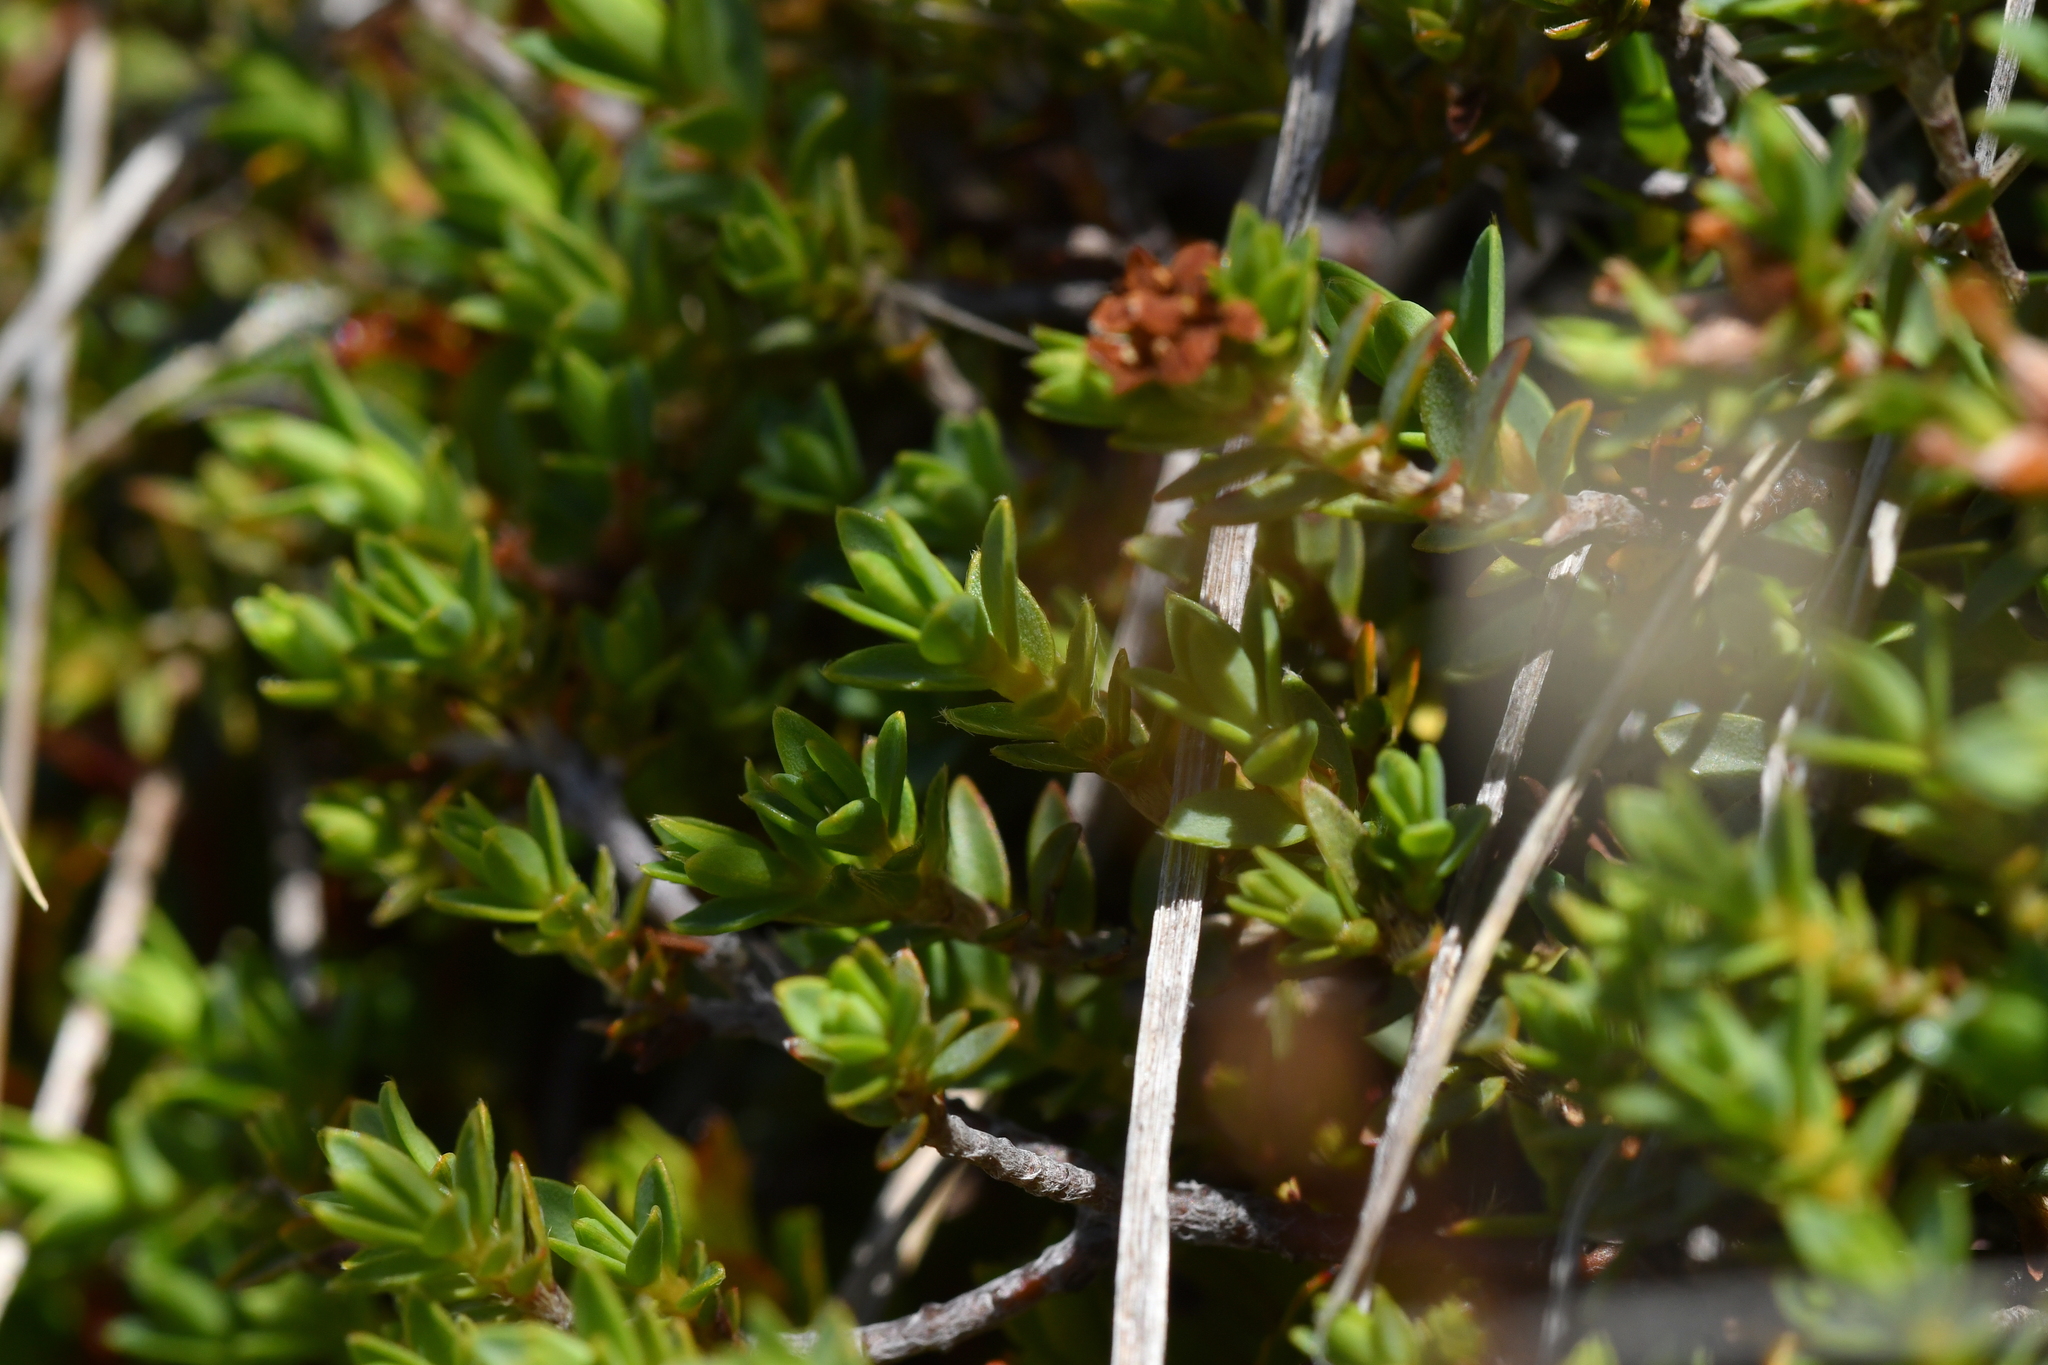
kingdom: Plantae
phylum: Tracheophyta
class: Magnoliopsida
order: Malvales
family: Thymelaeaceae
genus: Pimelea
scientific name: Pimelea oreophila
